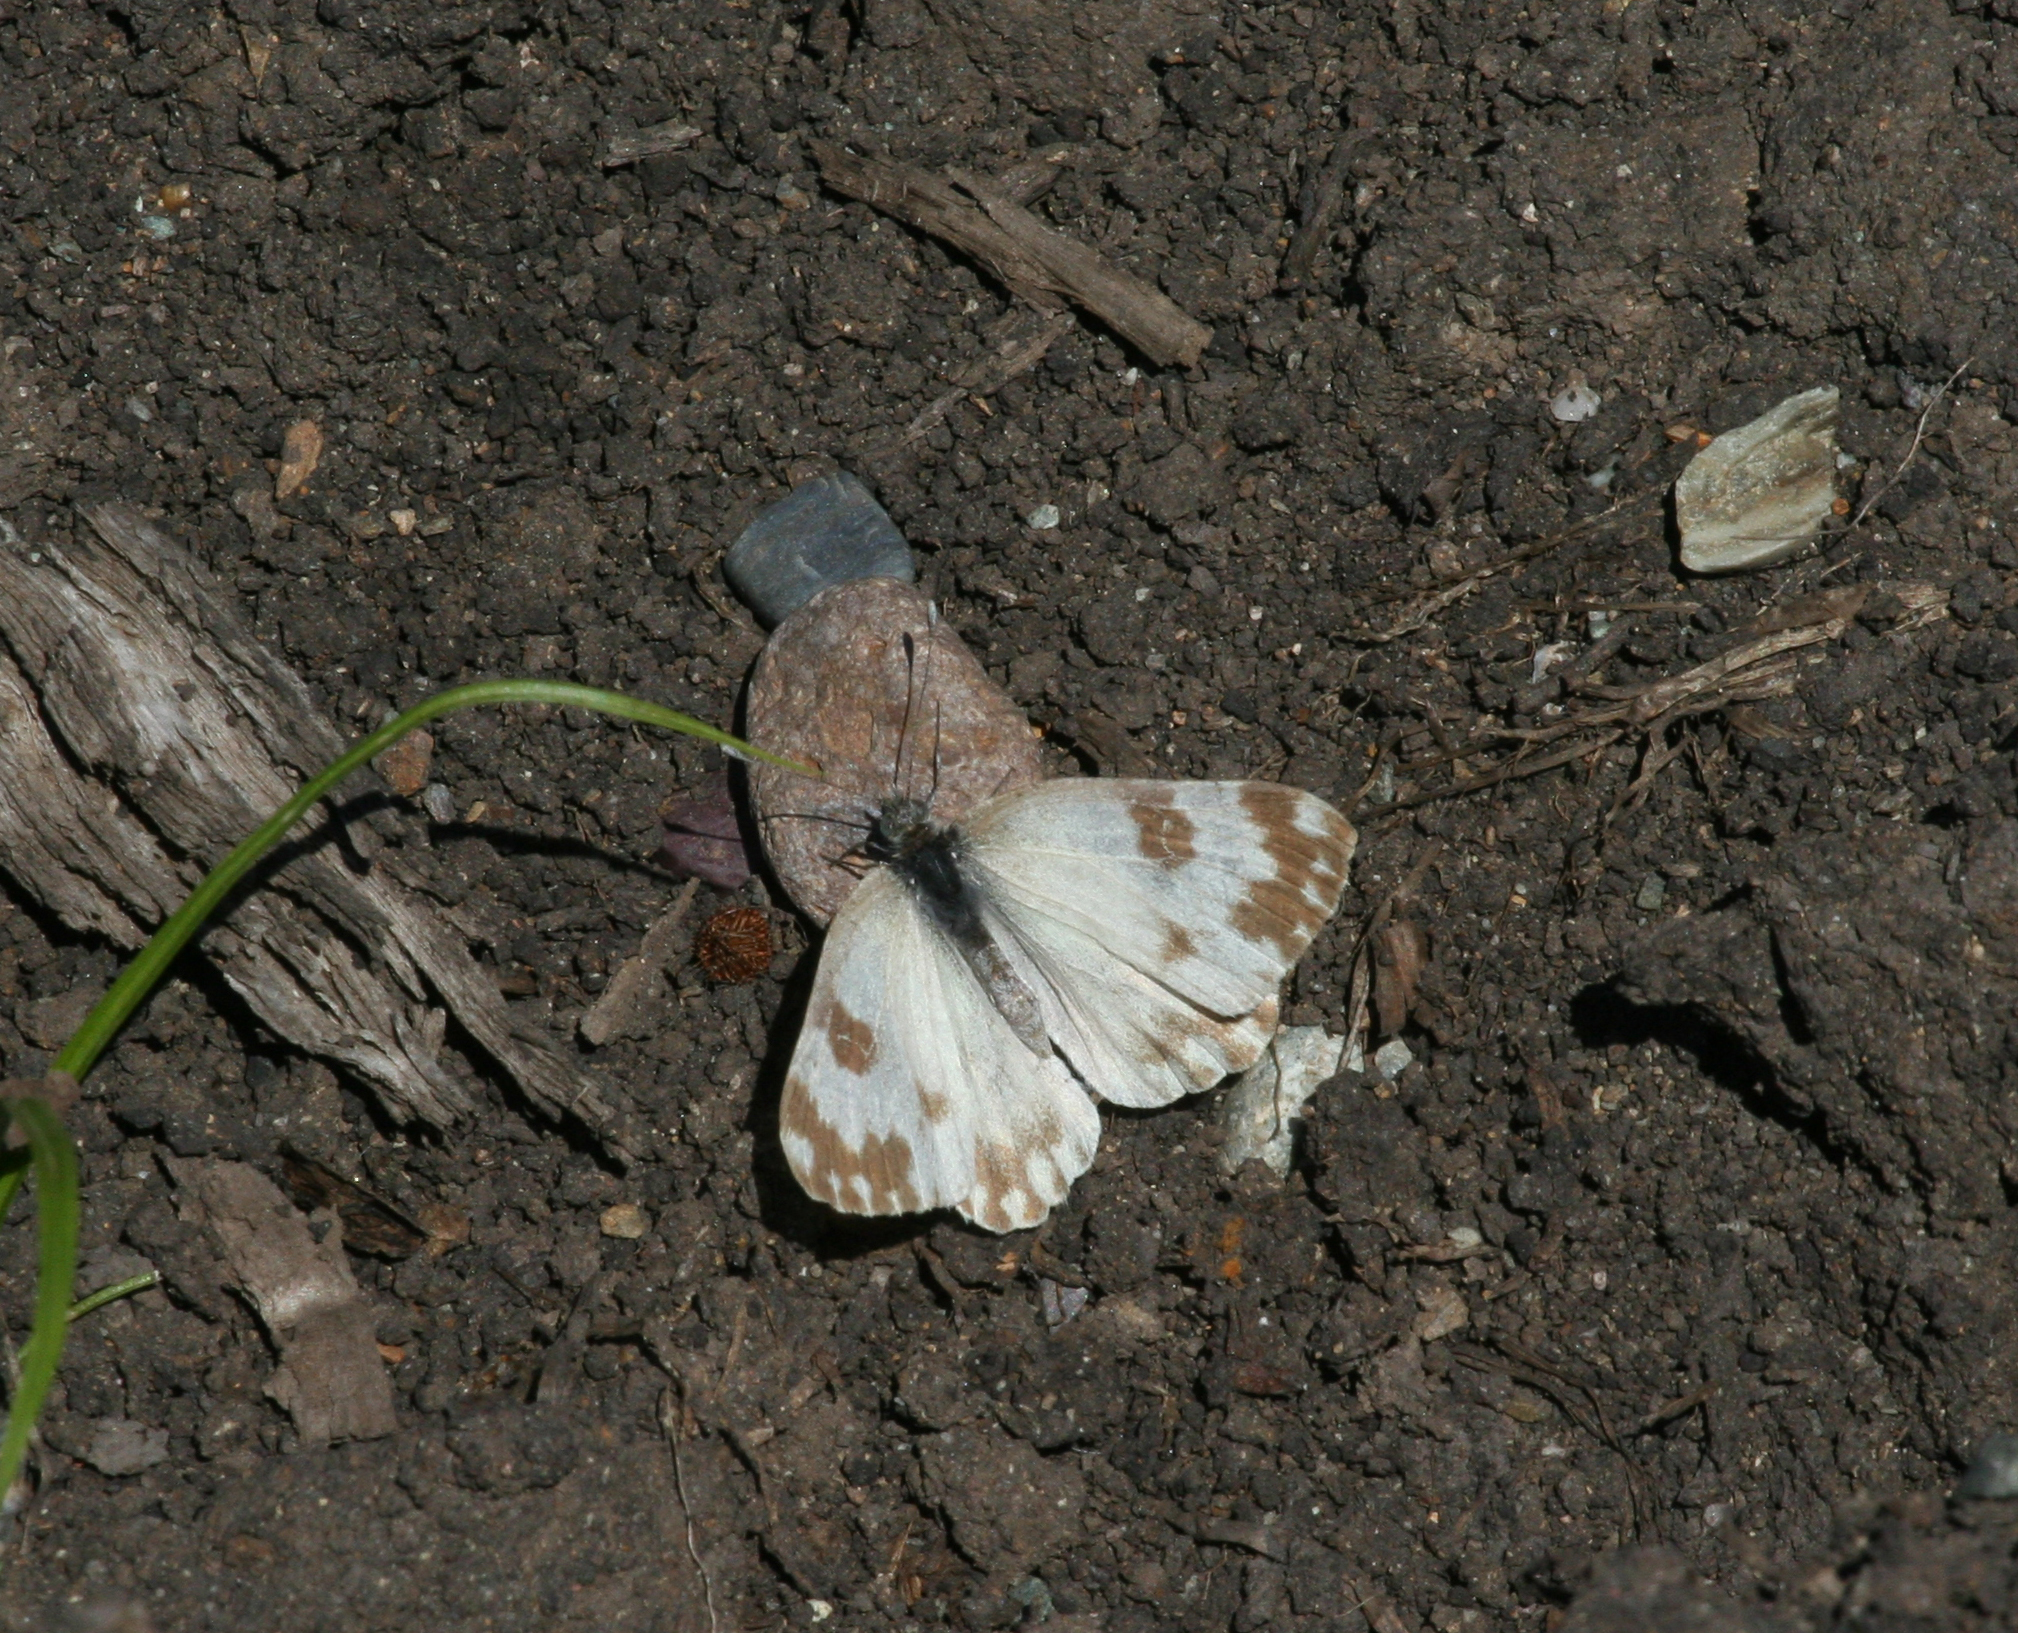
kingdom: Animalia
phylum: Arthropoda
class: Insecta
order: Lepidoptera
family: Pieridae
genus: Pontia
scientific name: Pontia edusa
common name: Eastern bath white
